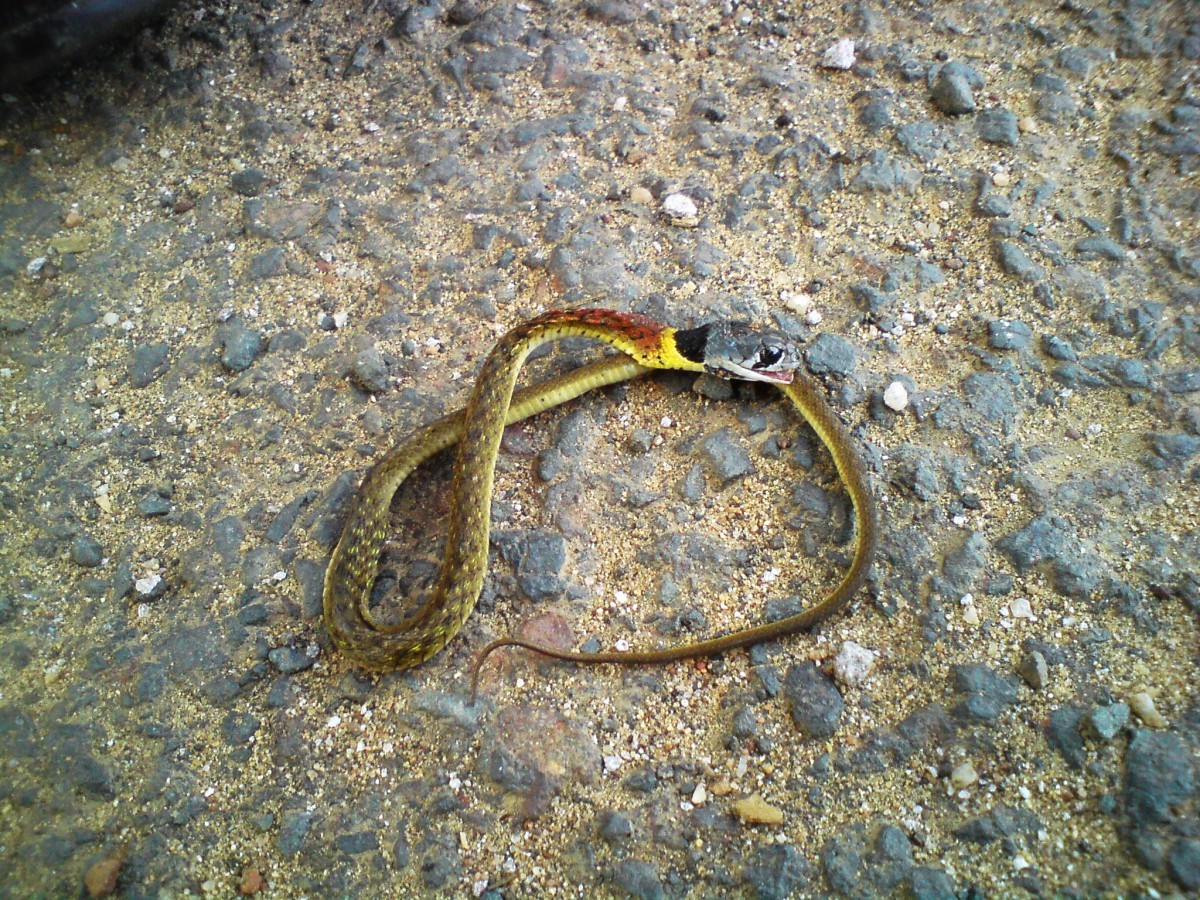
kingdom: Animalia
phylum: Chordata
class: Squamata
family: Colubridae
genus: Rhabdophis
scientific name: Rhabdophis helleri
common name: Heller’s red-necked keelback
